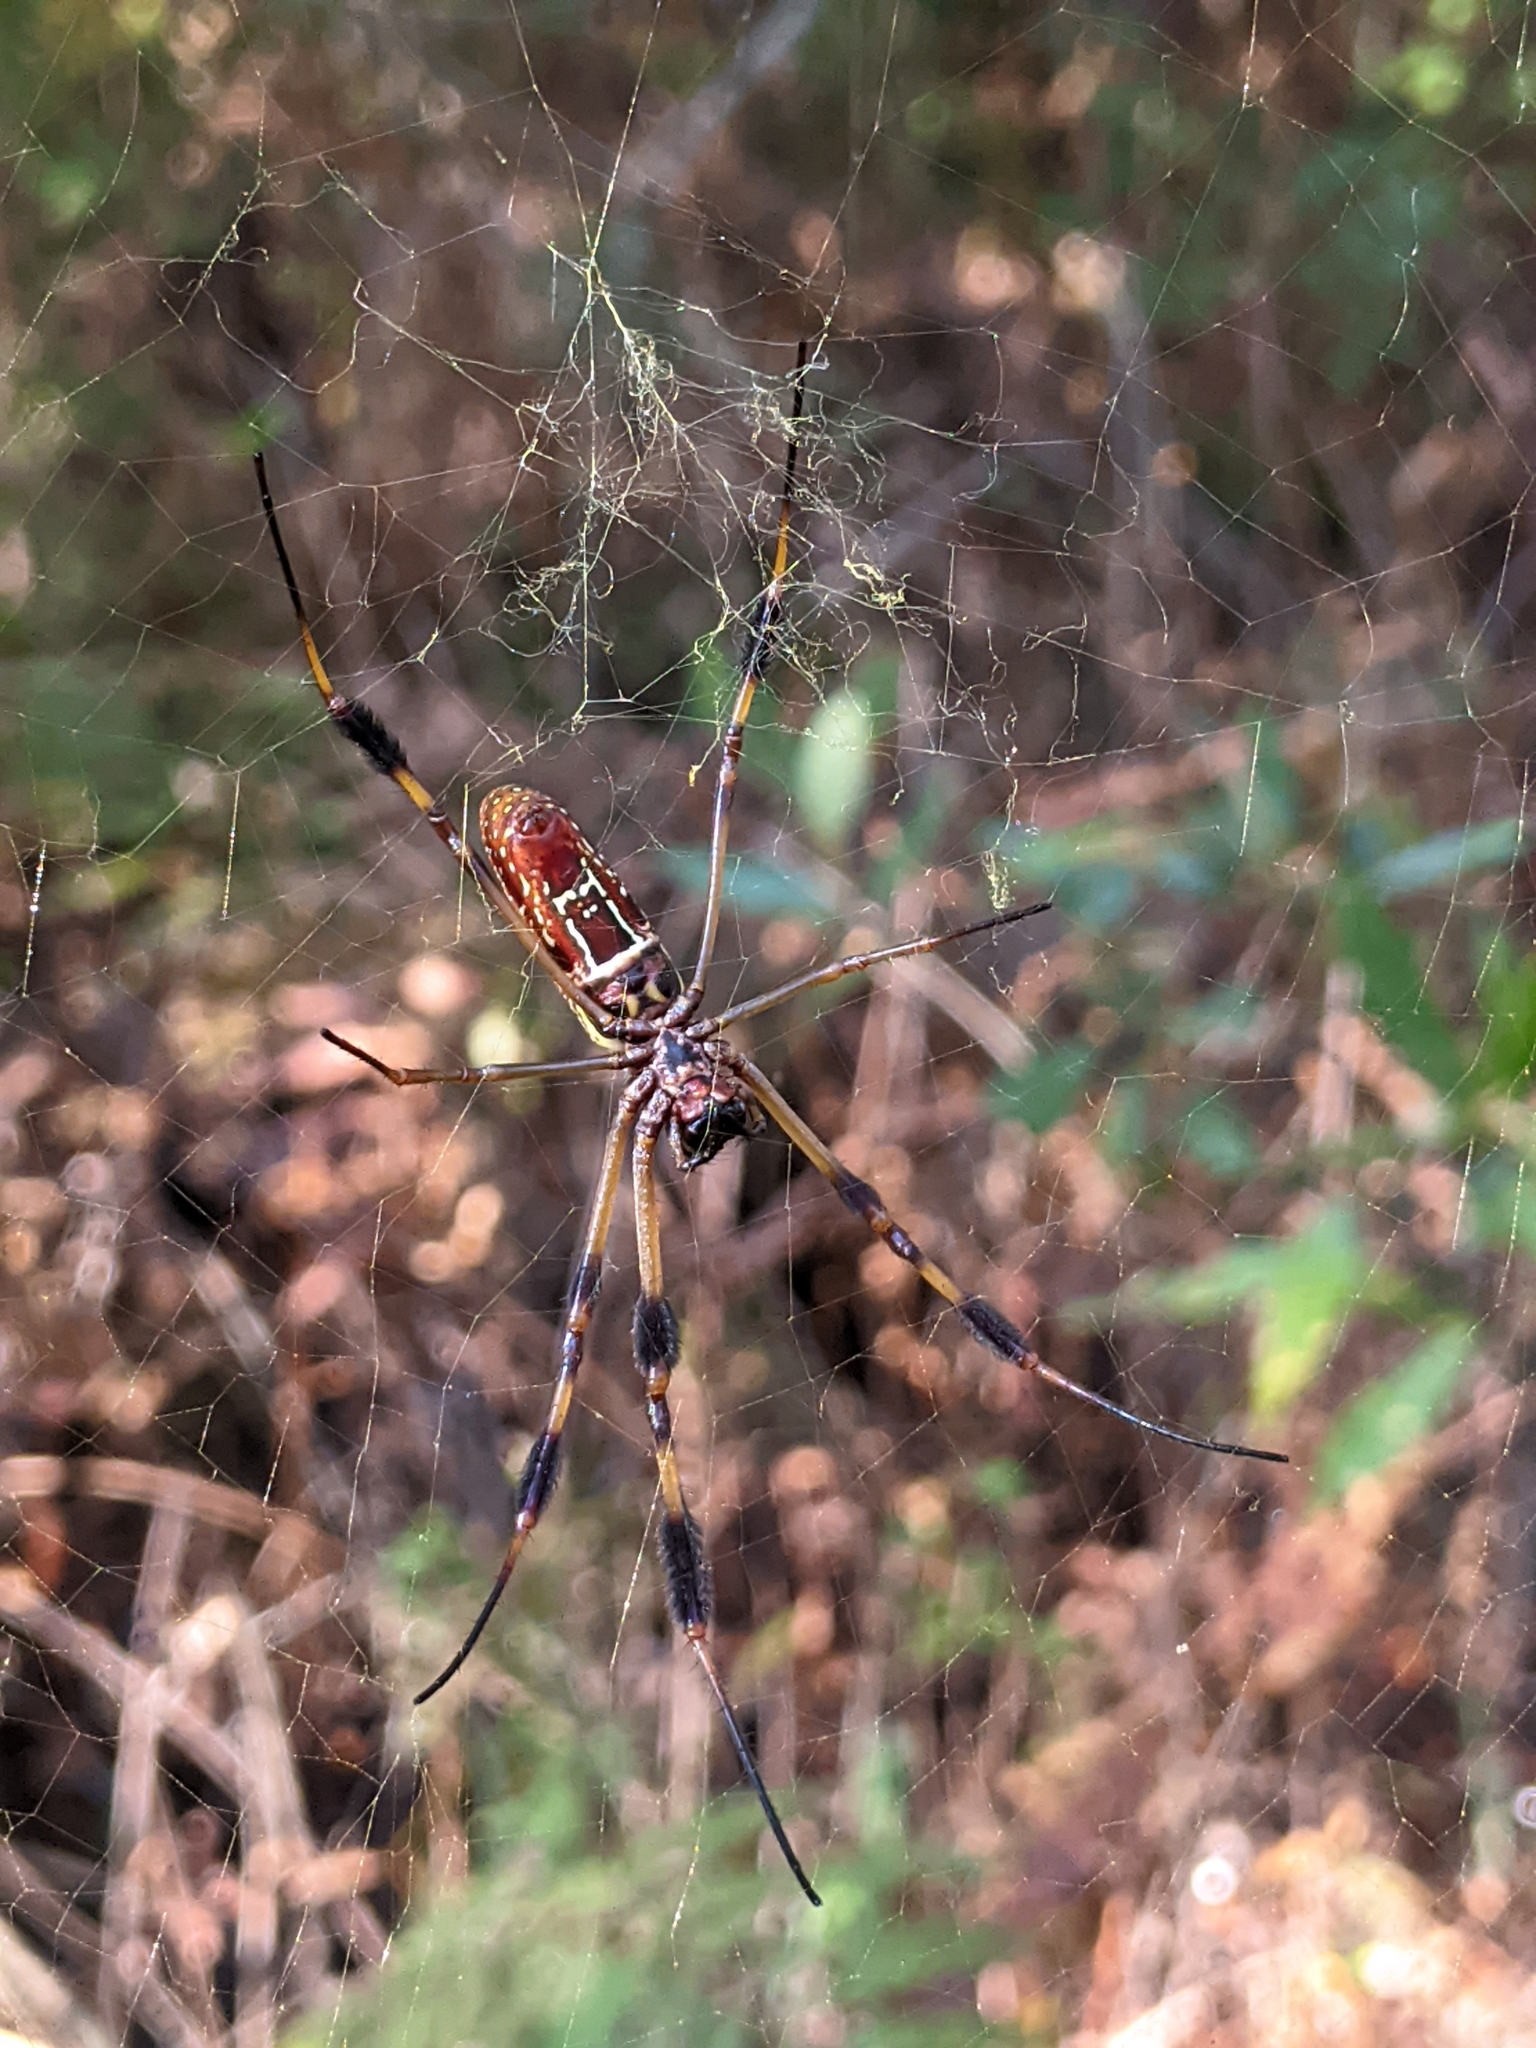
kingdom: Animalia
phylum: Arthropoda
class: Arachnida
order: Araneae
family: Araneidae
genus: Trichonephila
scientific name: Trichonephila clavipes
